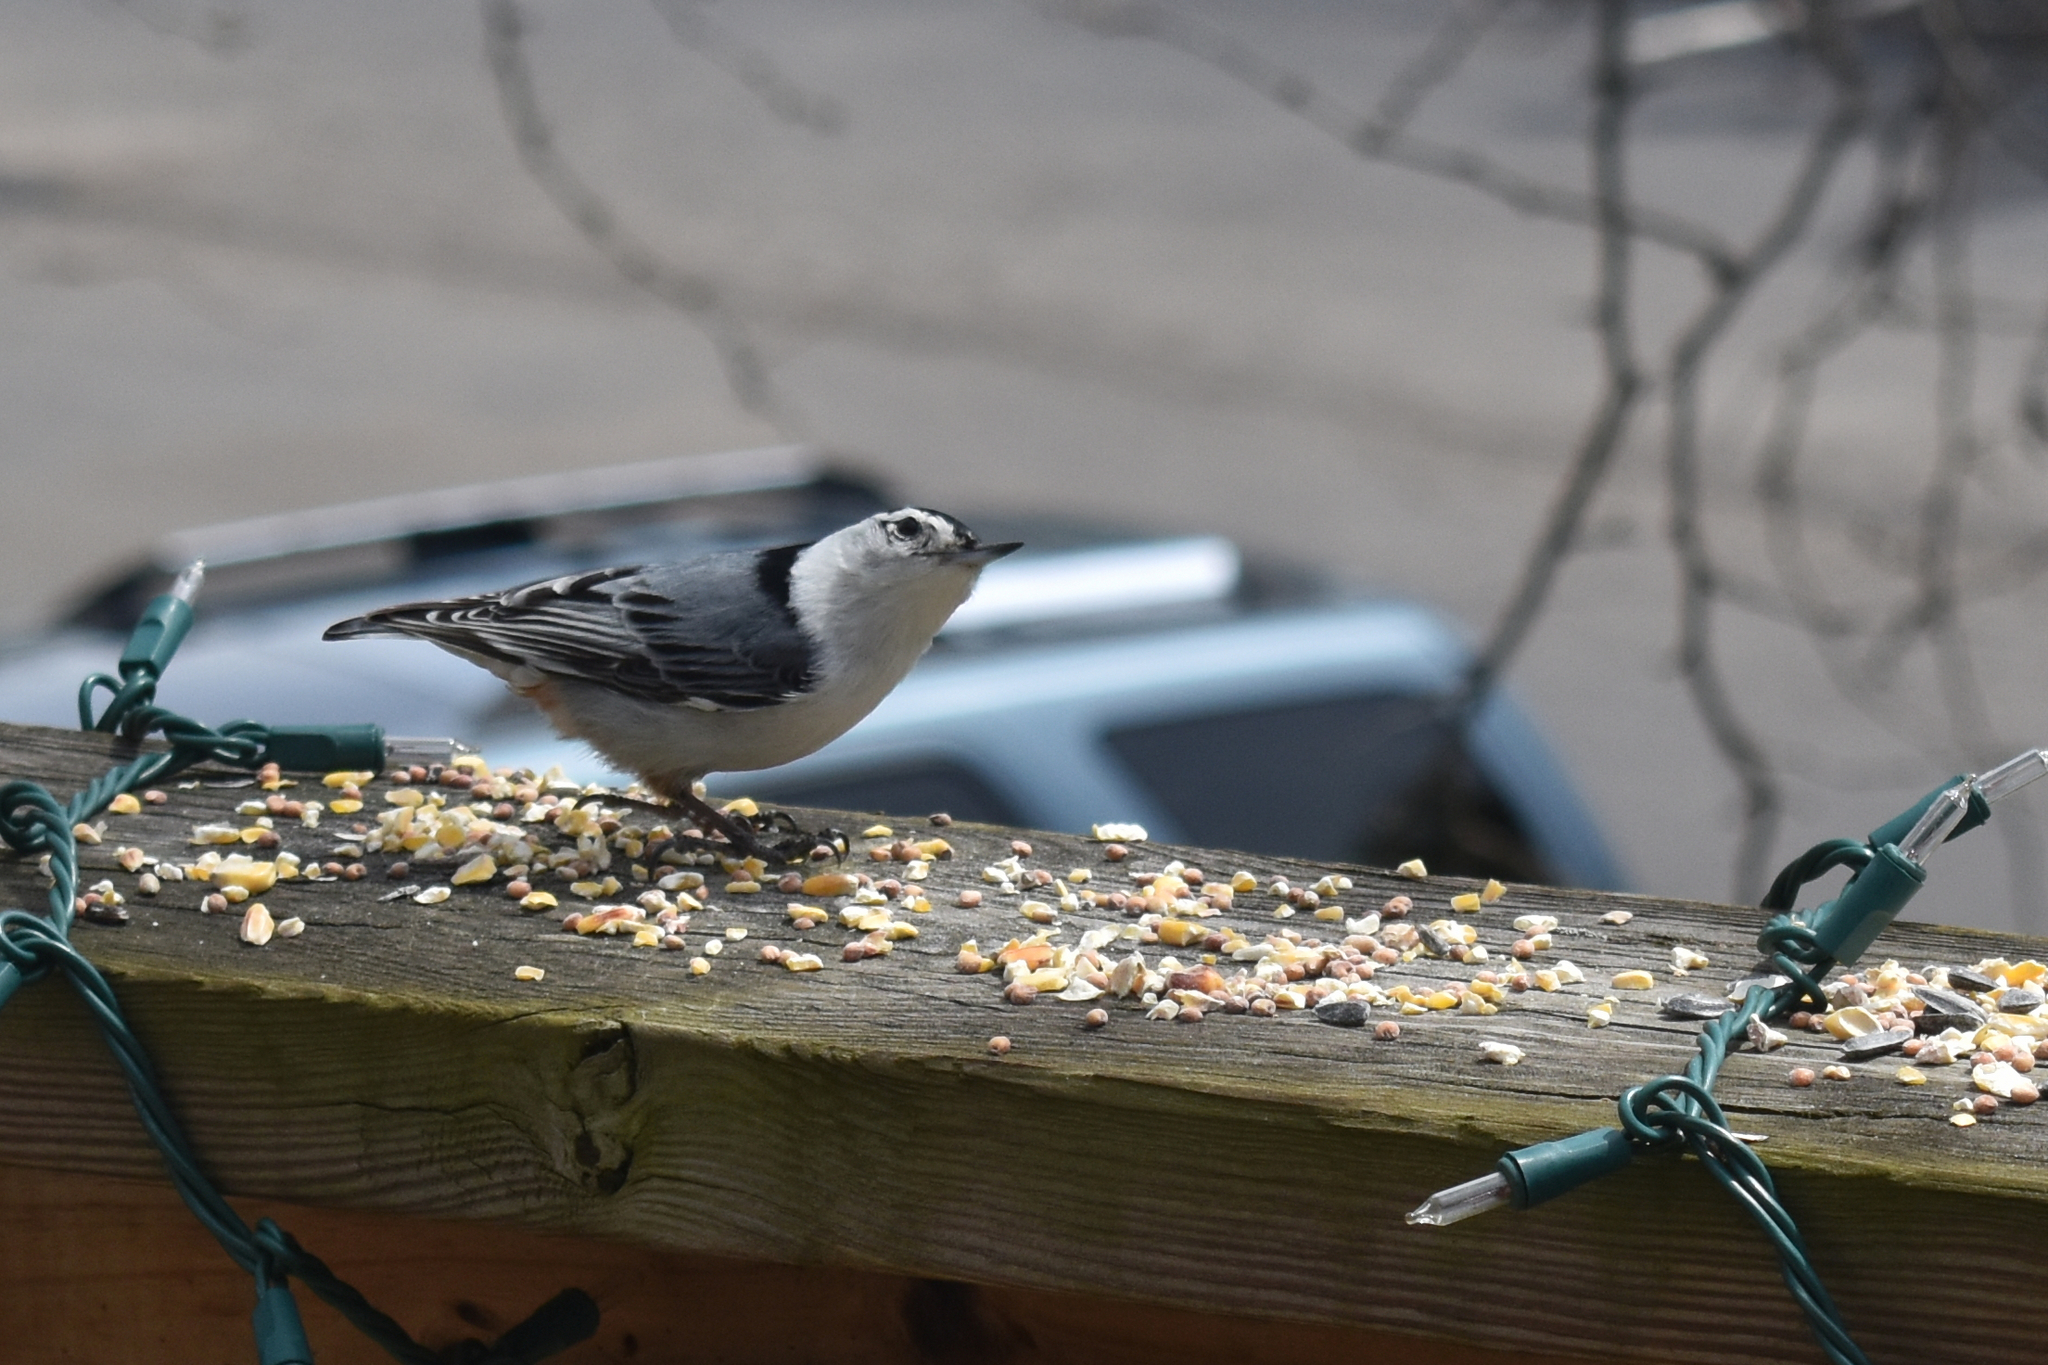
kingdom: Animalia
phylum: Chordata
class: Aves
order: Passeriformes
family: Sittidae
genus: Sitta
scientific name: Sitta carolinensis
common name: White-breasted nuthatch
